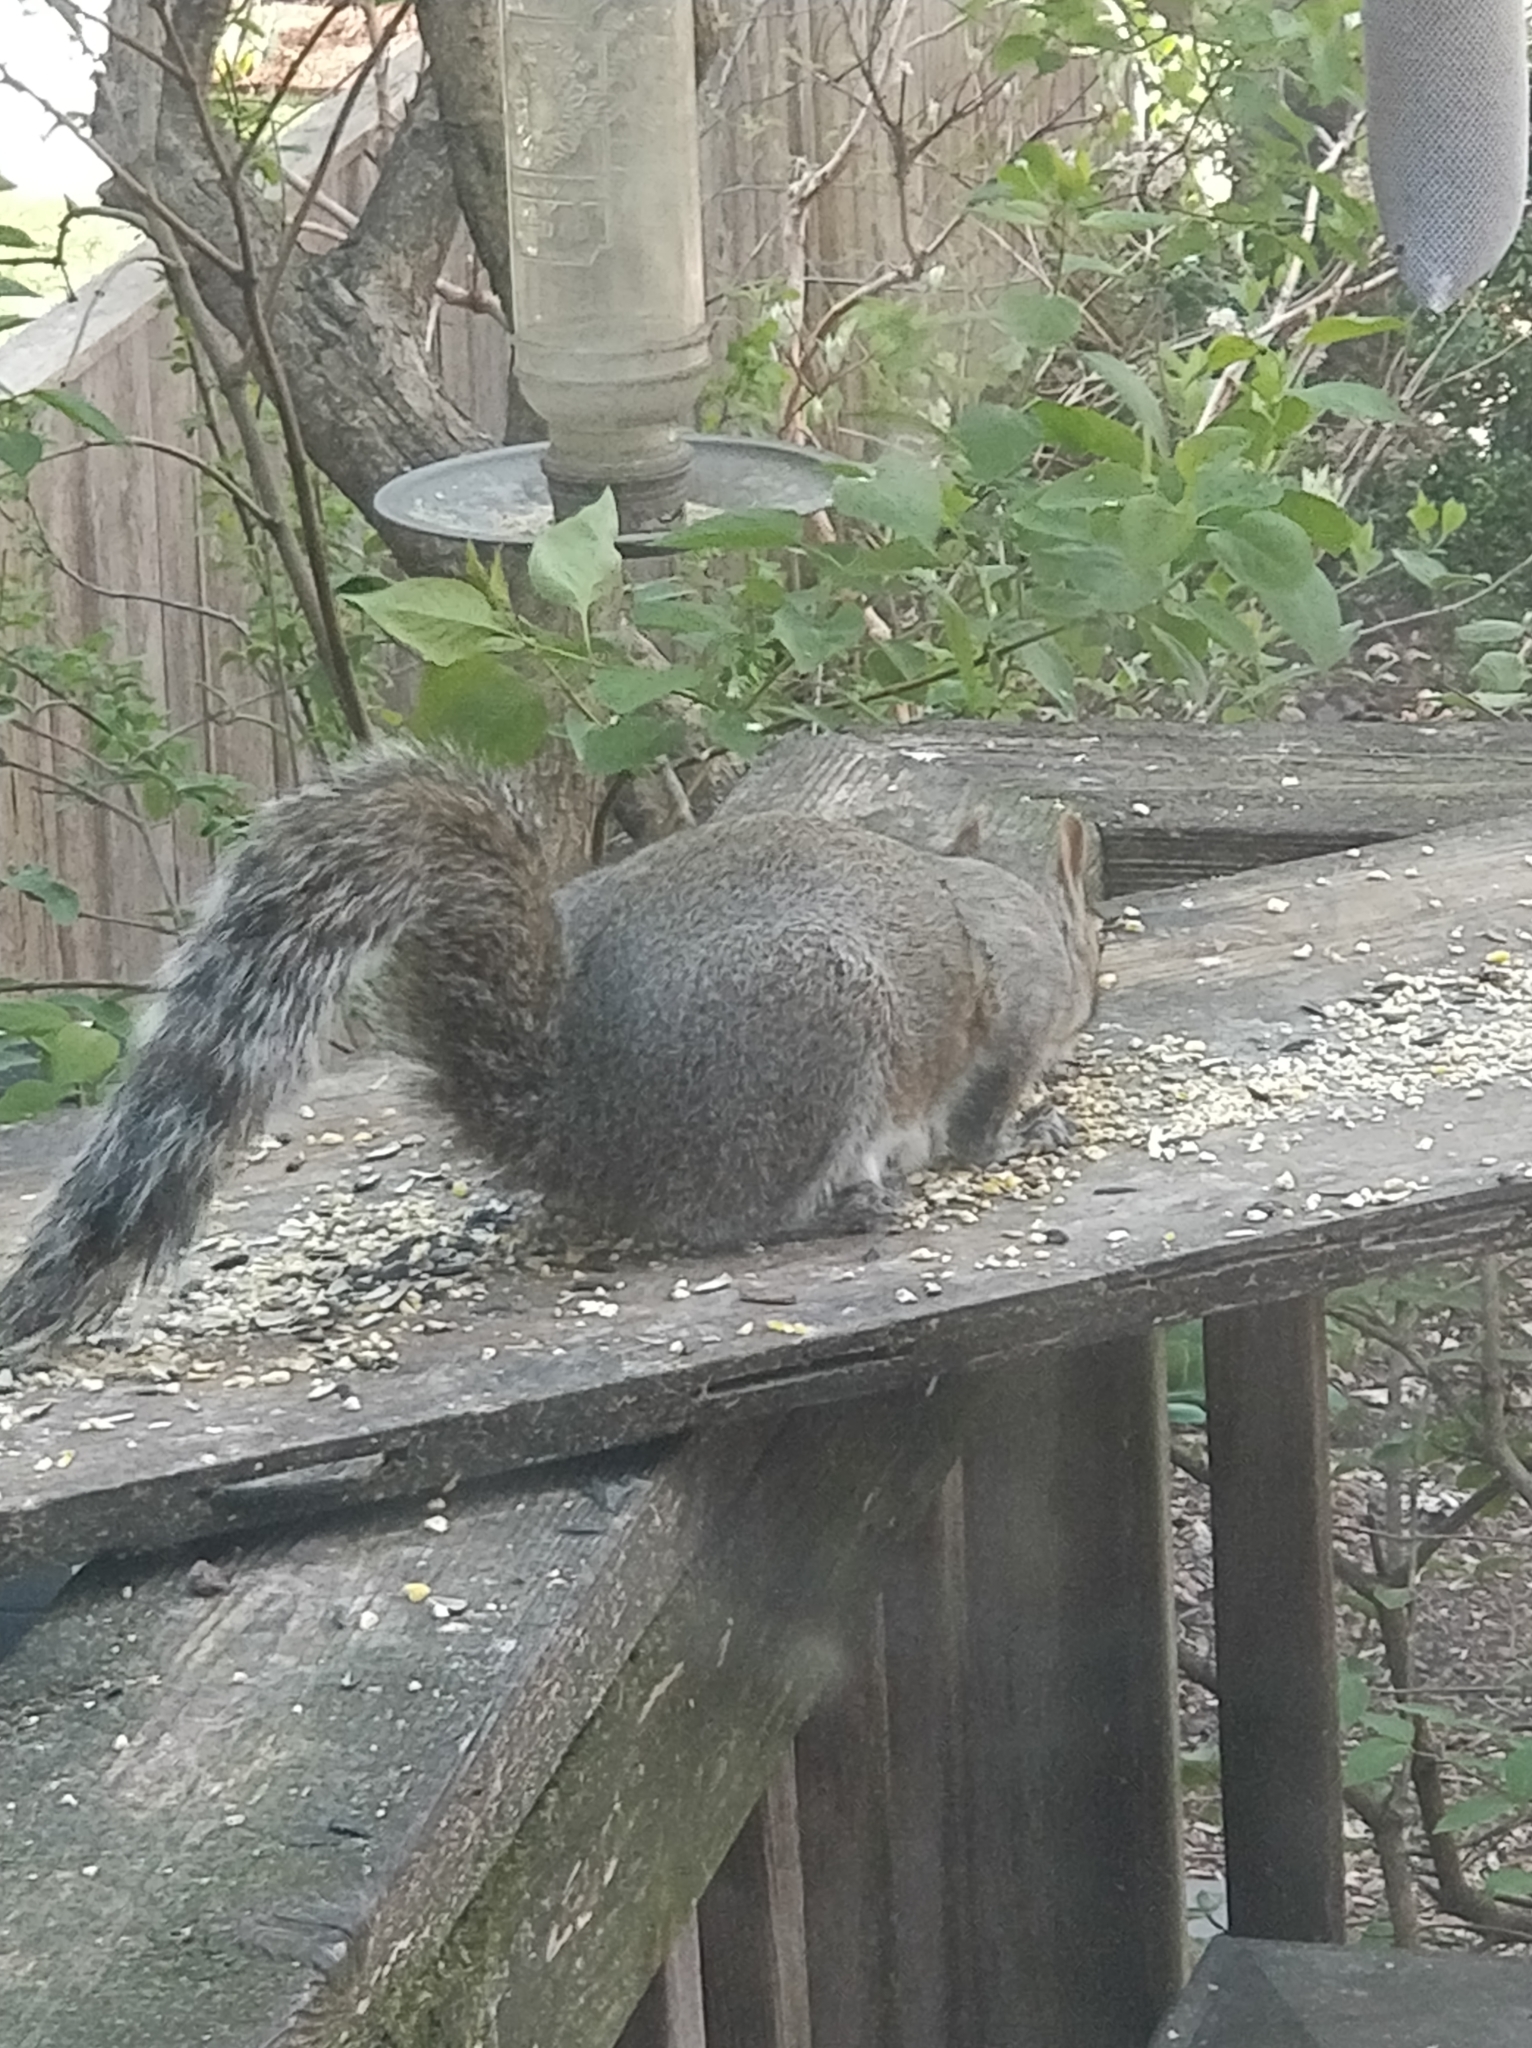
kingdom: Animalia
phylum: Chordata
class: Mammalia
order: Rodentia
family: Sciuridae
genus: Sciurus
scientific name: Sciurus carolinensis
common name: Eastern gray squirrel
